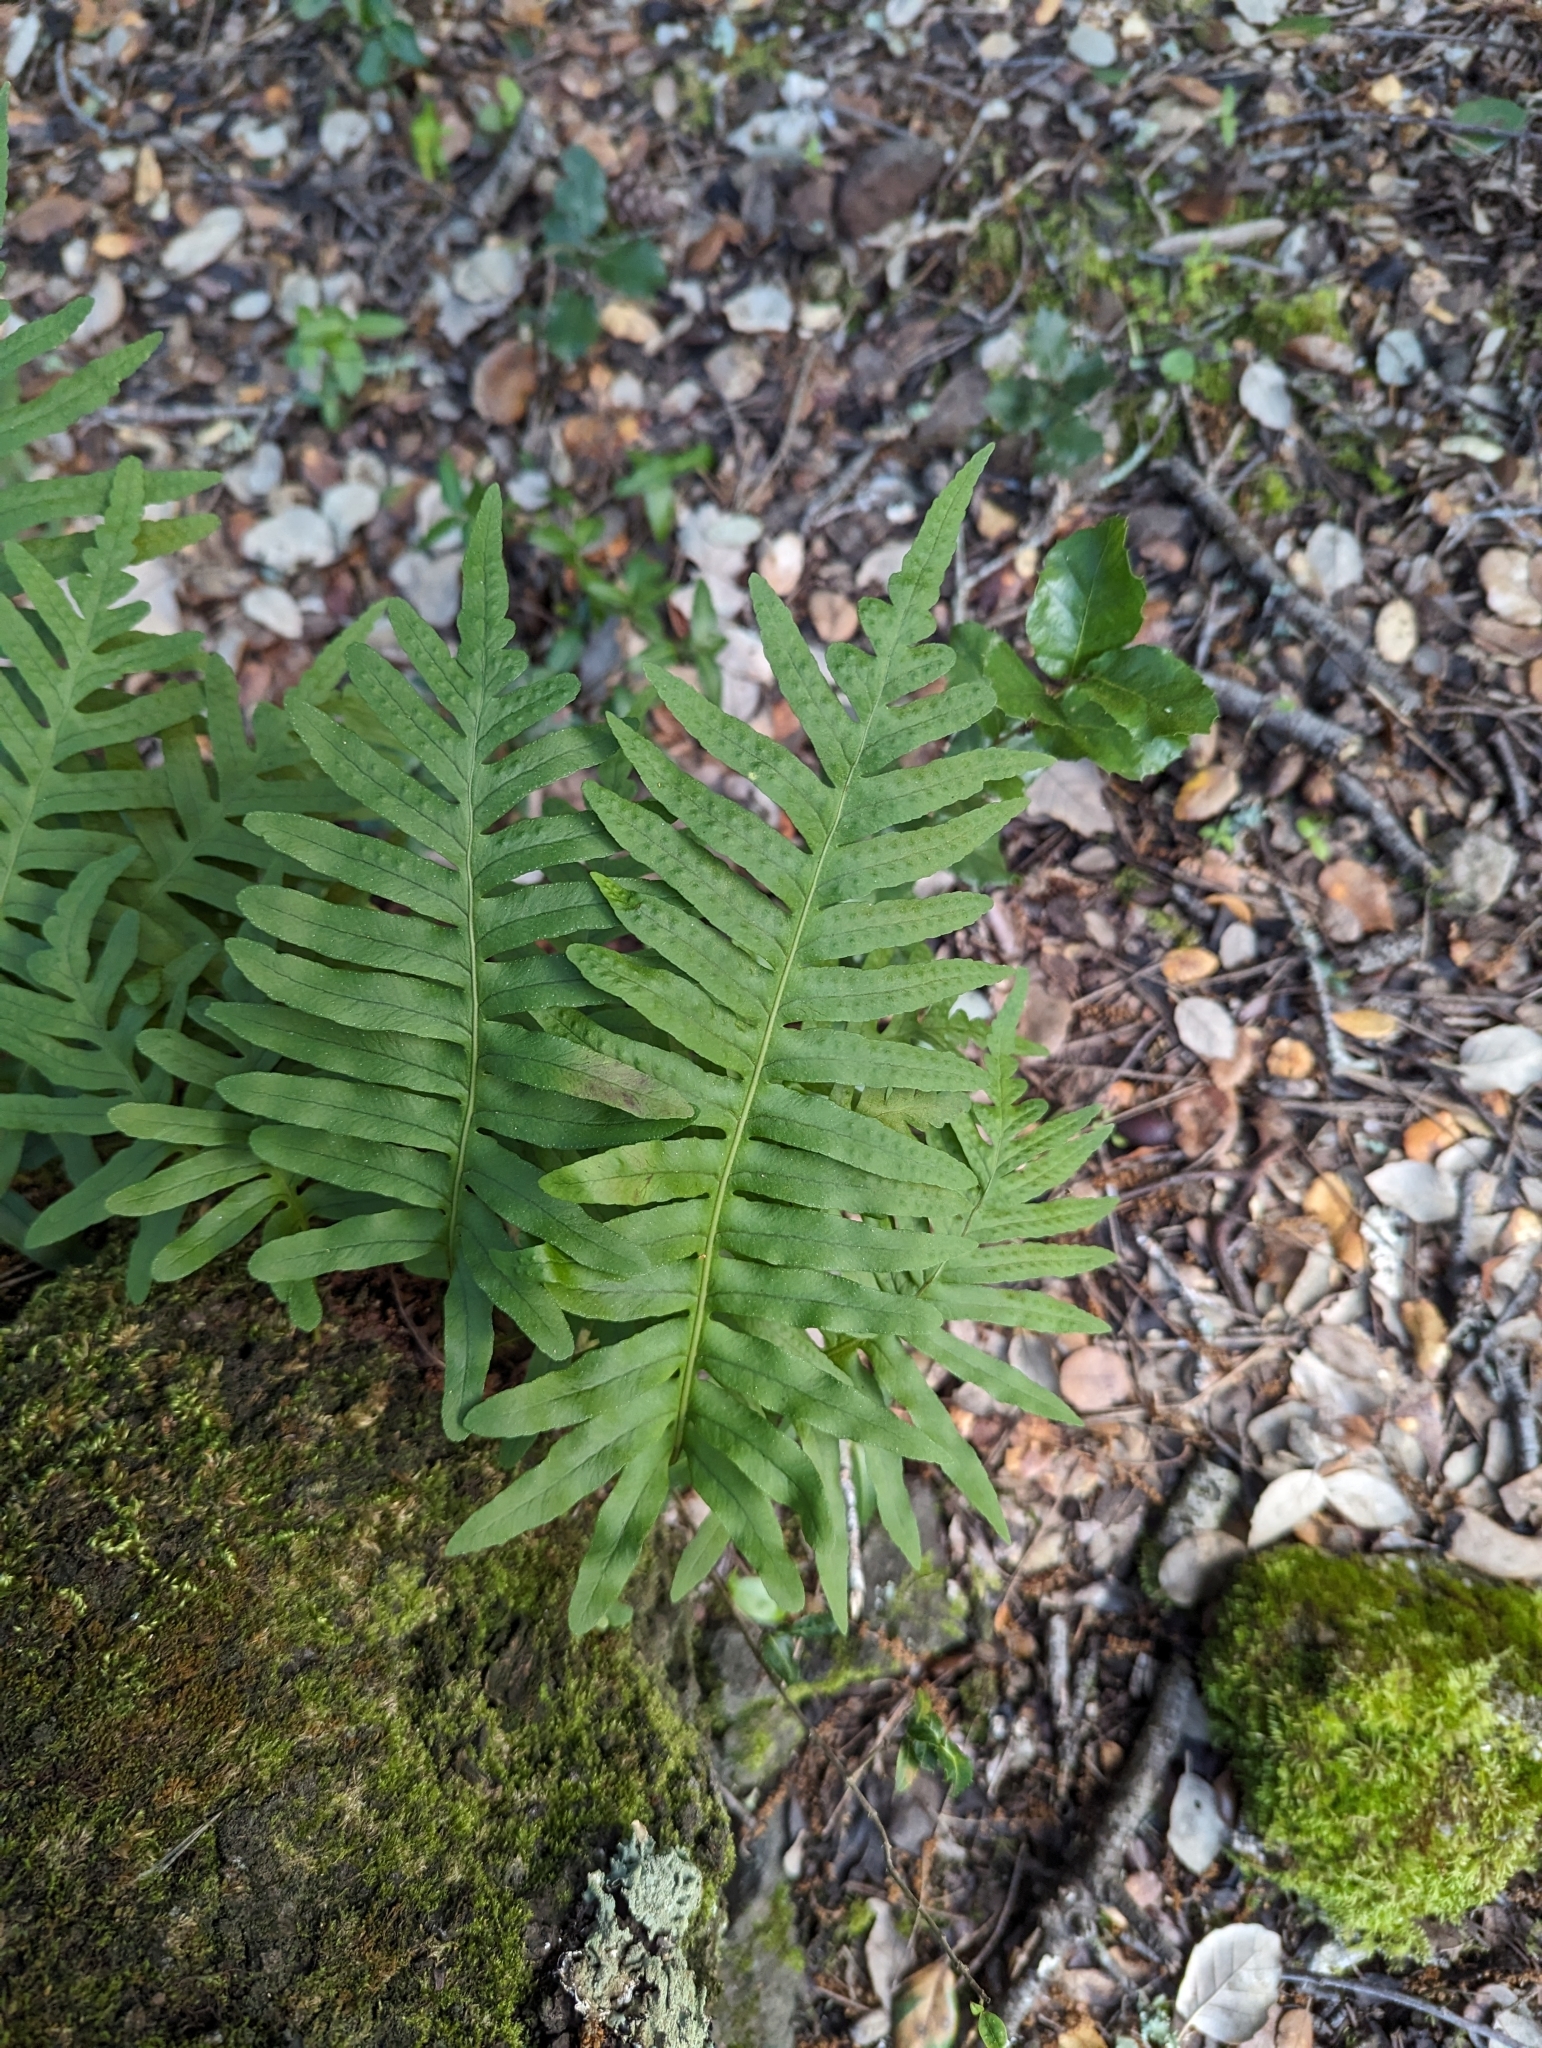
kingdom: Plantae
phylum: Tracheophyta
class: Polypodiopsida
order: Polypodiales
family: Polypodiaceae
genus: Polypodium
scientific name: Polypodium cambricum
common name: Southern polypody
